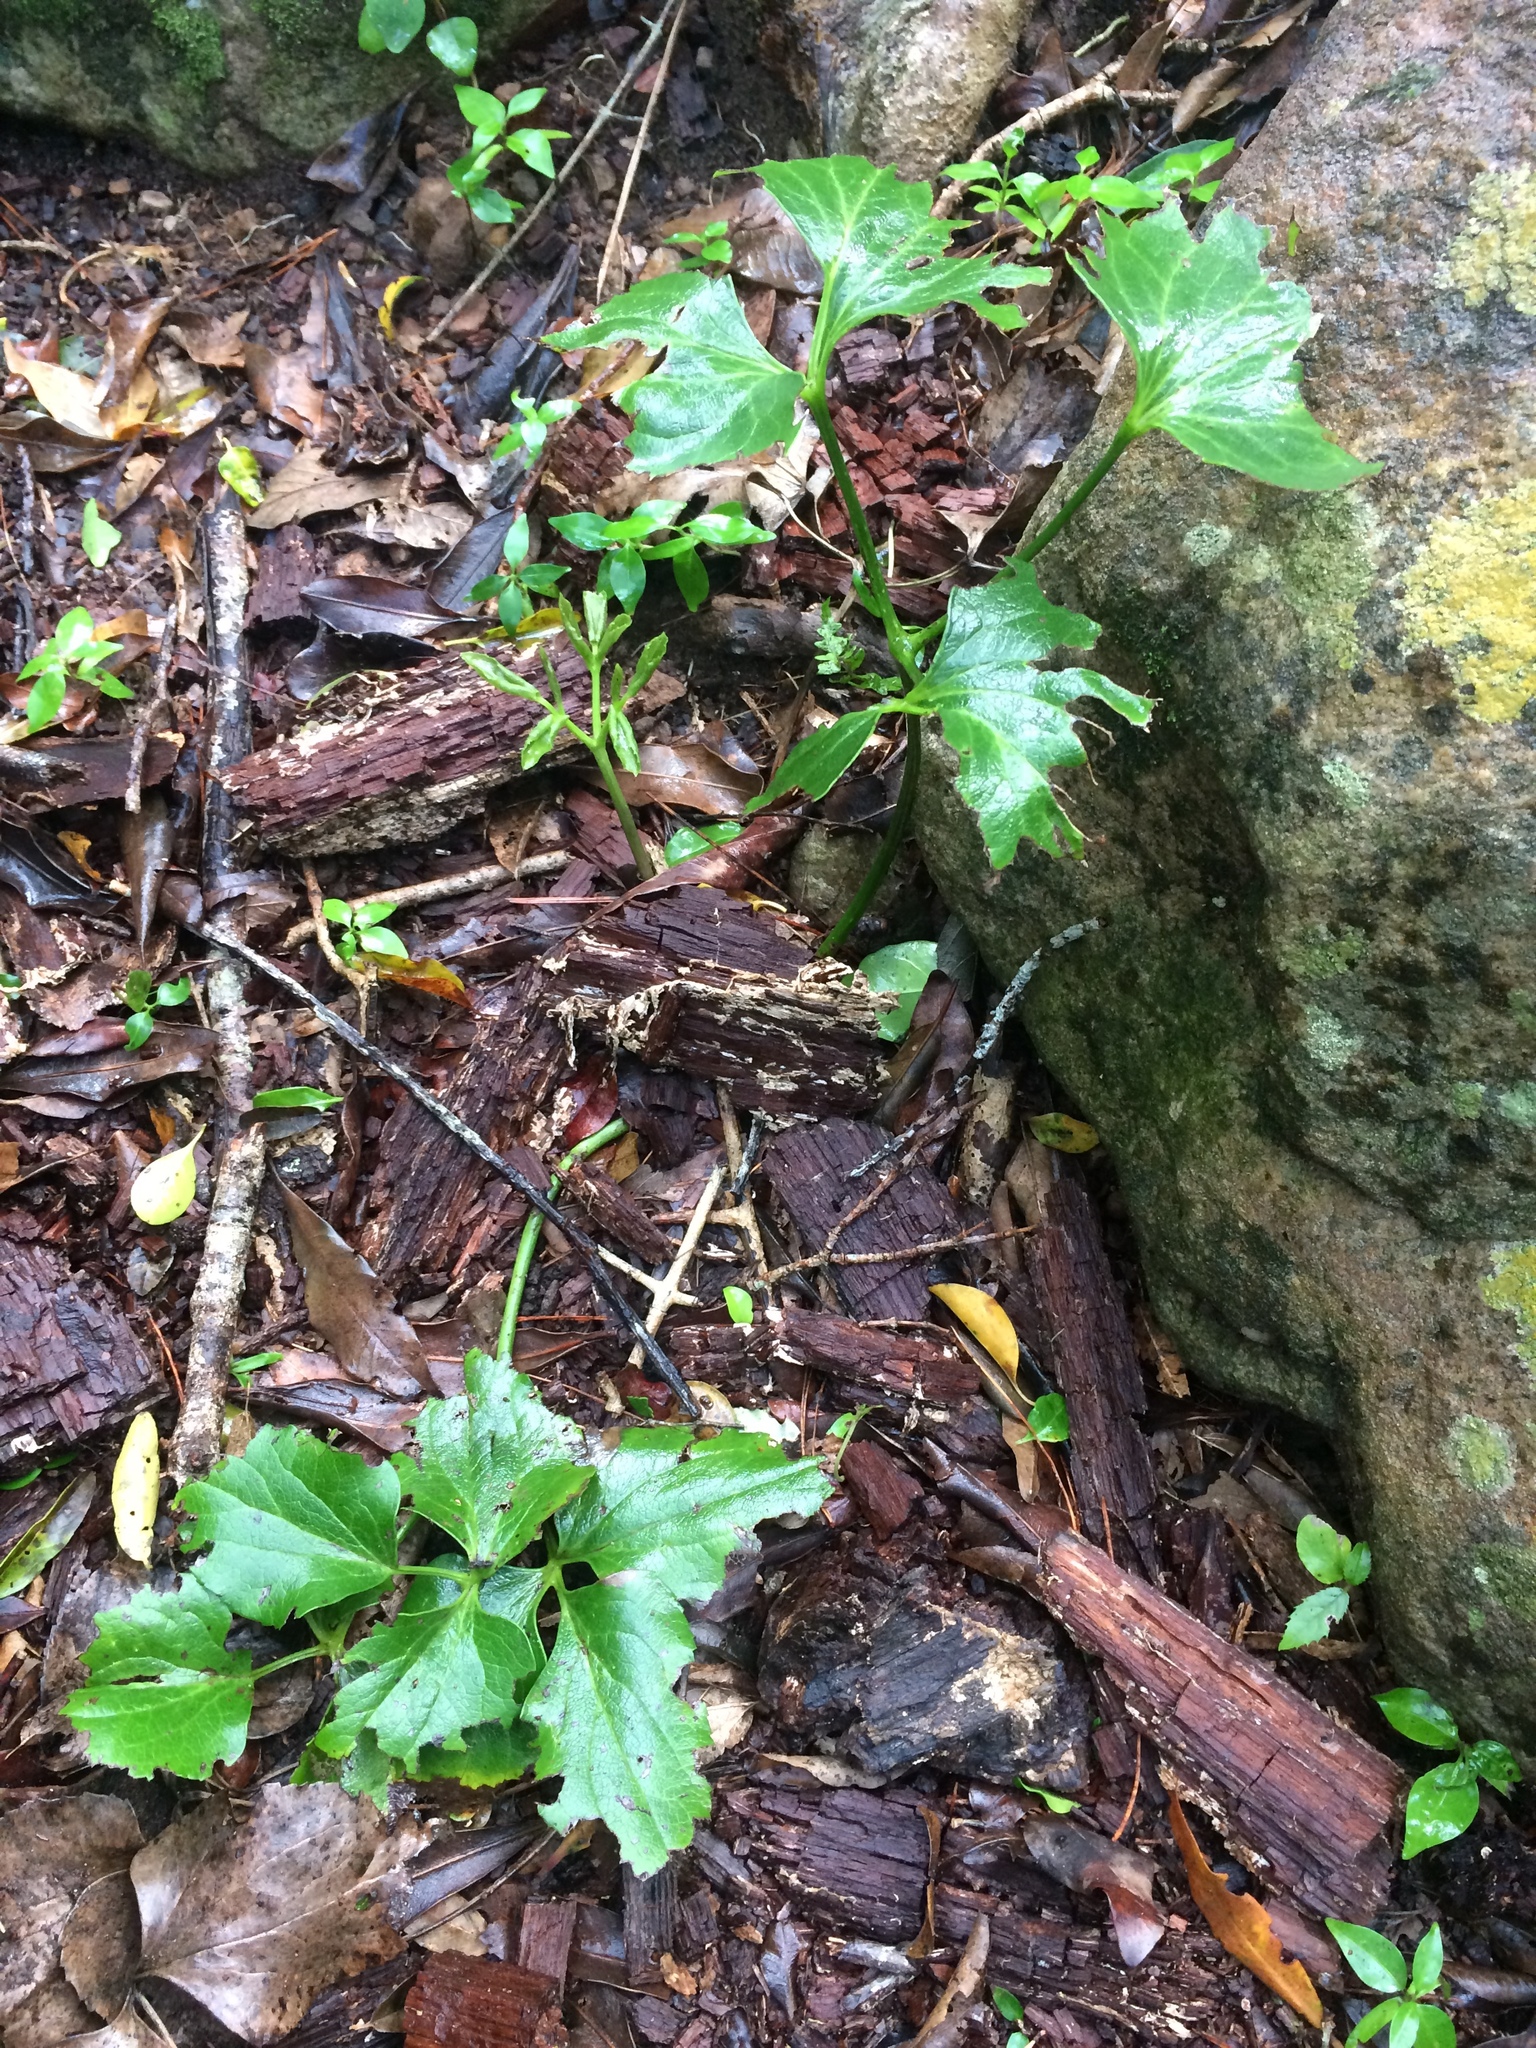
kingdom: Plantae
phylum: Tracheophyta
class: Magnoliopsida
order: Ranunculales
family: Ranunculaceae
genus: Knowltonia
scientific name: Knowltonia vesicatoria
